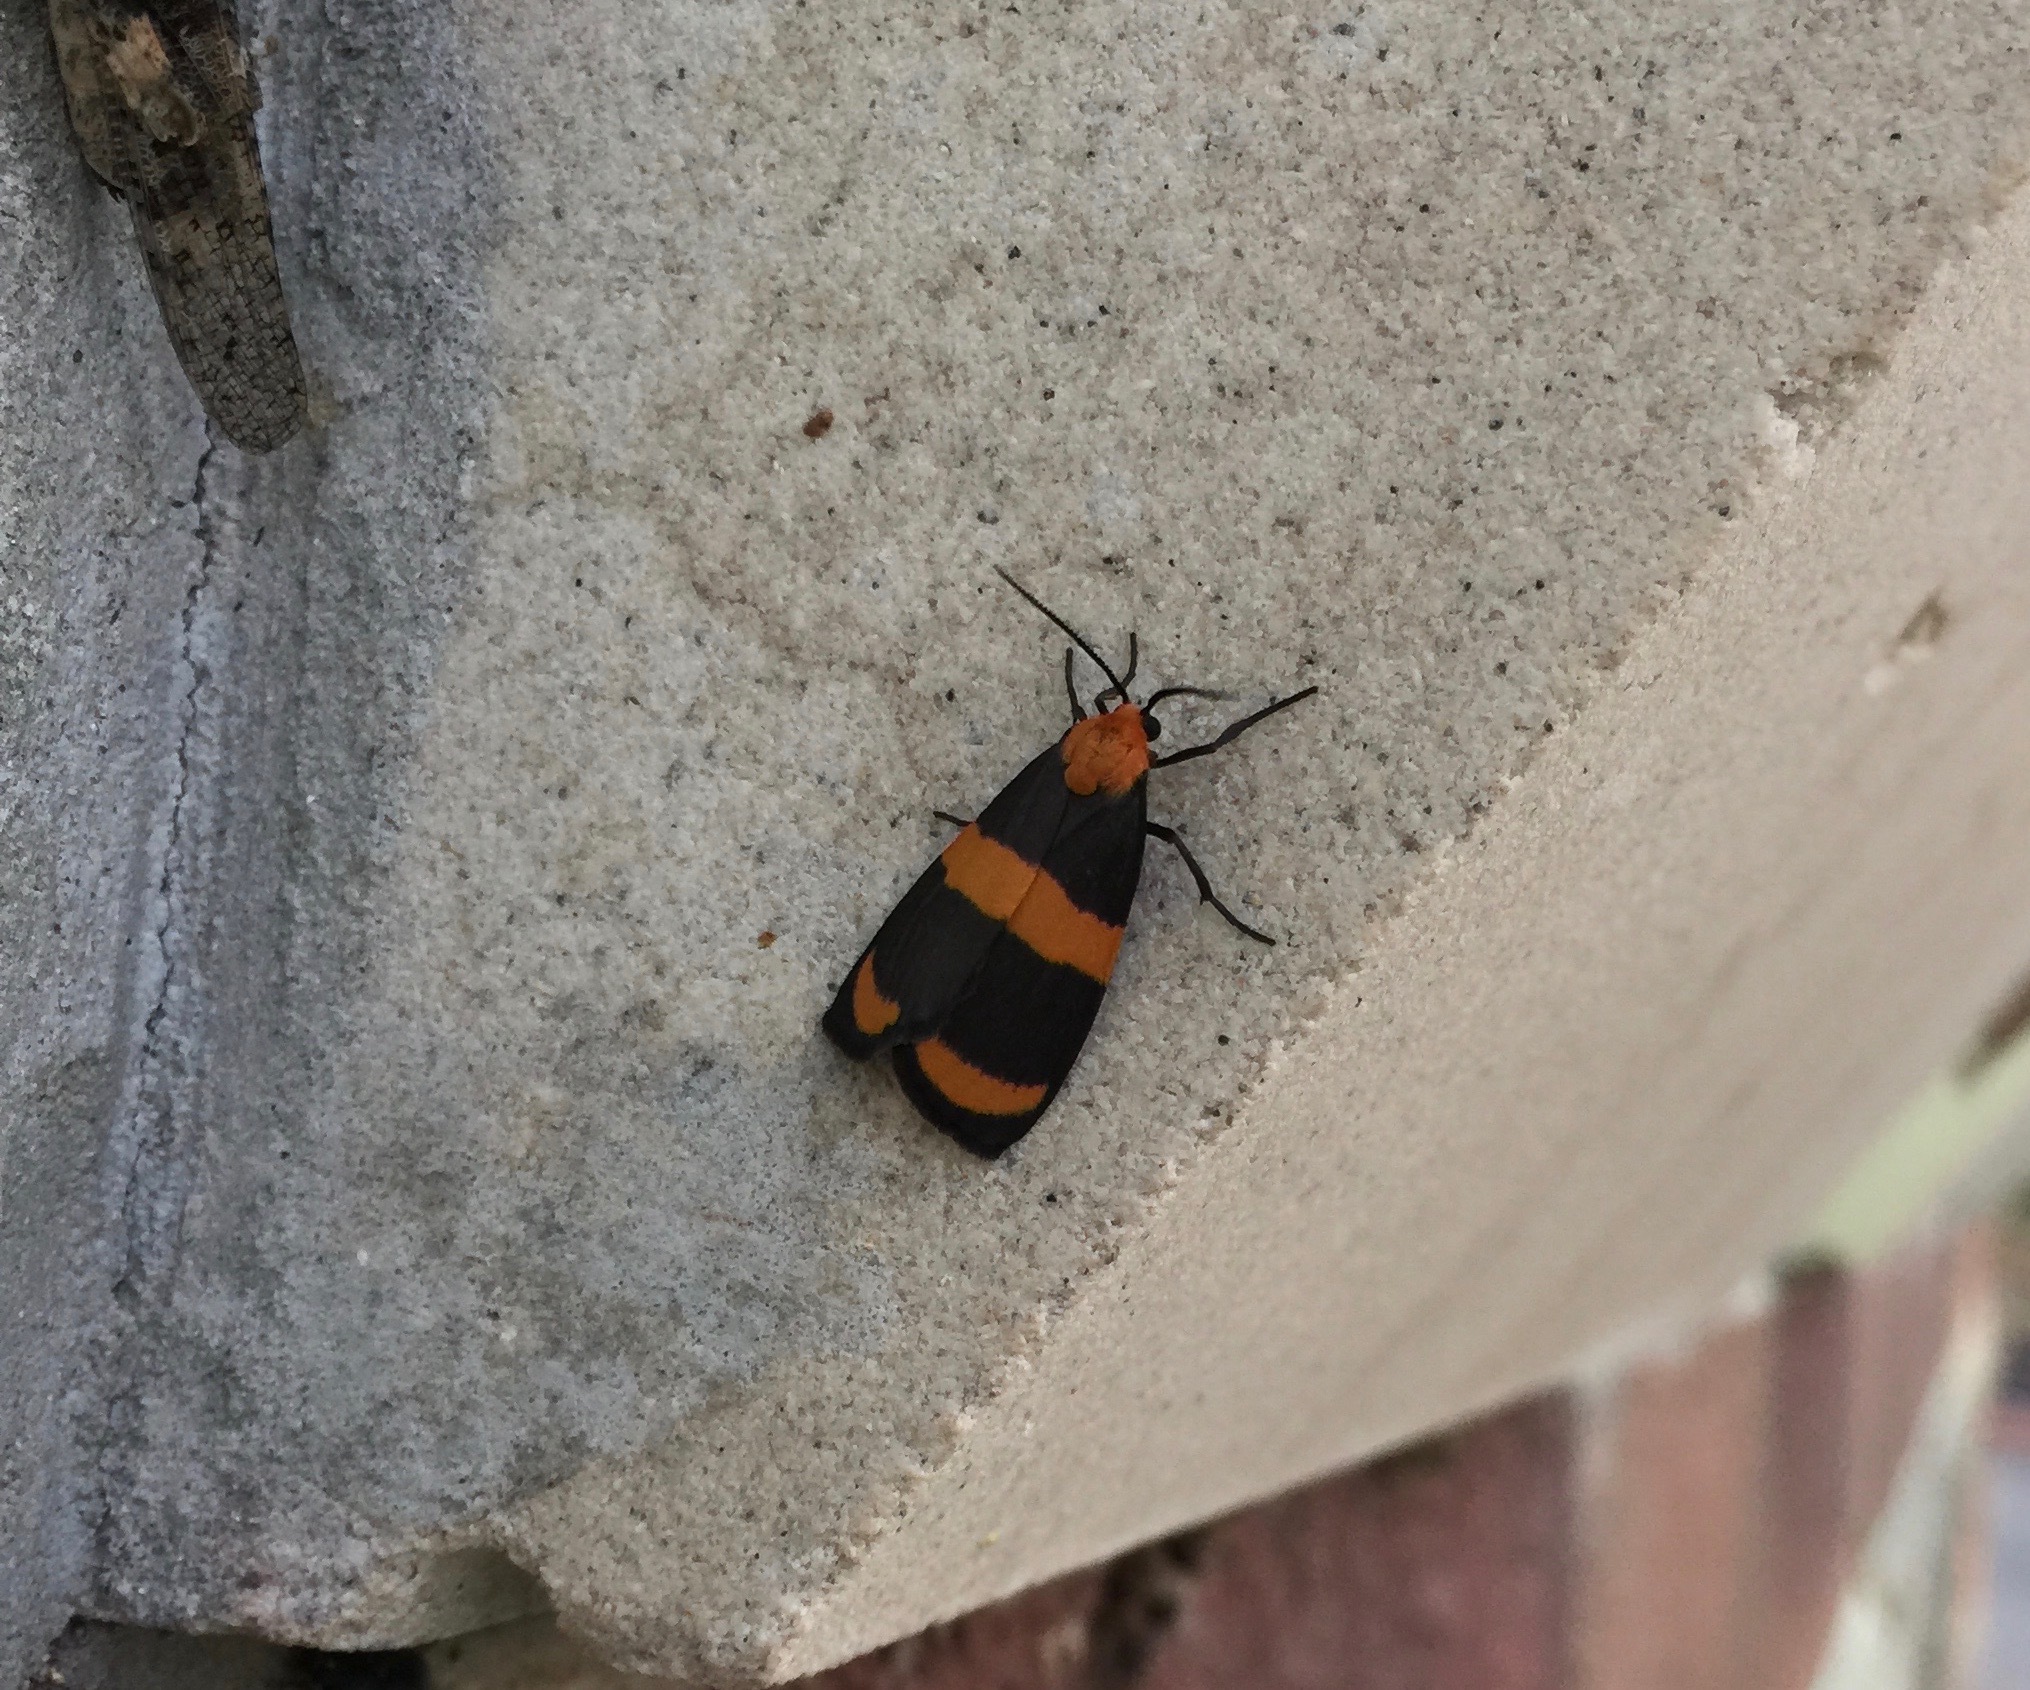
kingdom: Animalia
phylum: Arthropoda
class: Insecta
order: Lepidoptera
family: Erebidae
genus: Eudesmia
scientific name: Eudesmia arida
